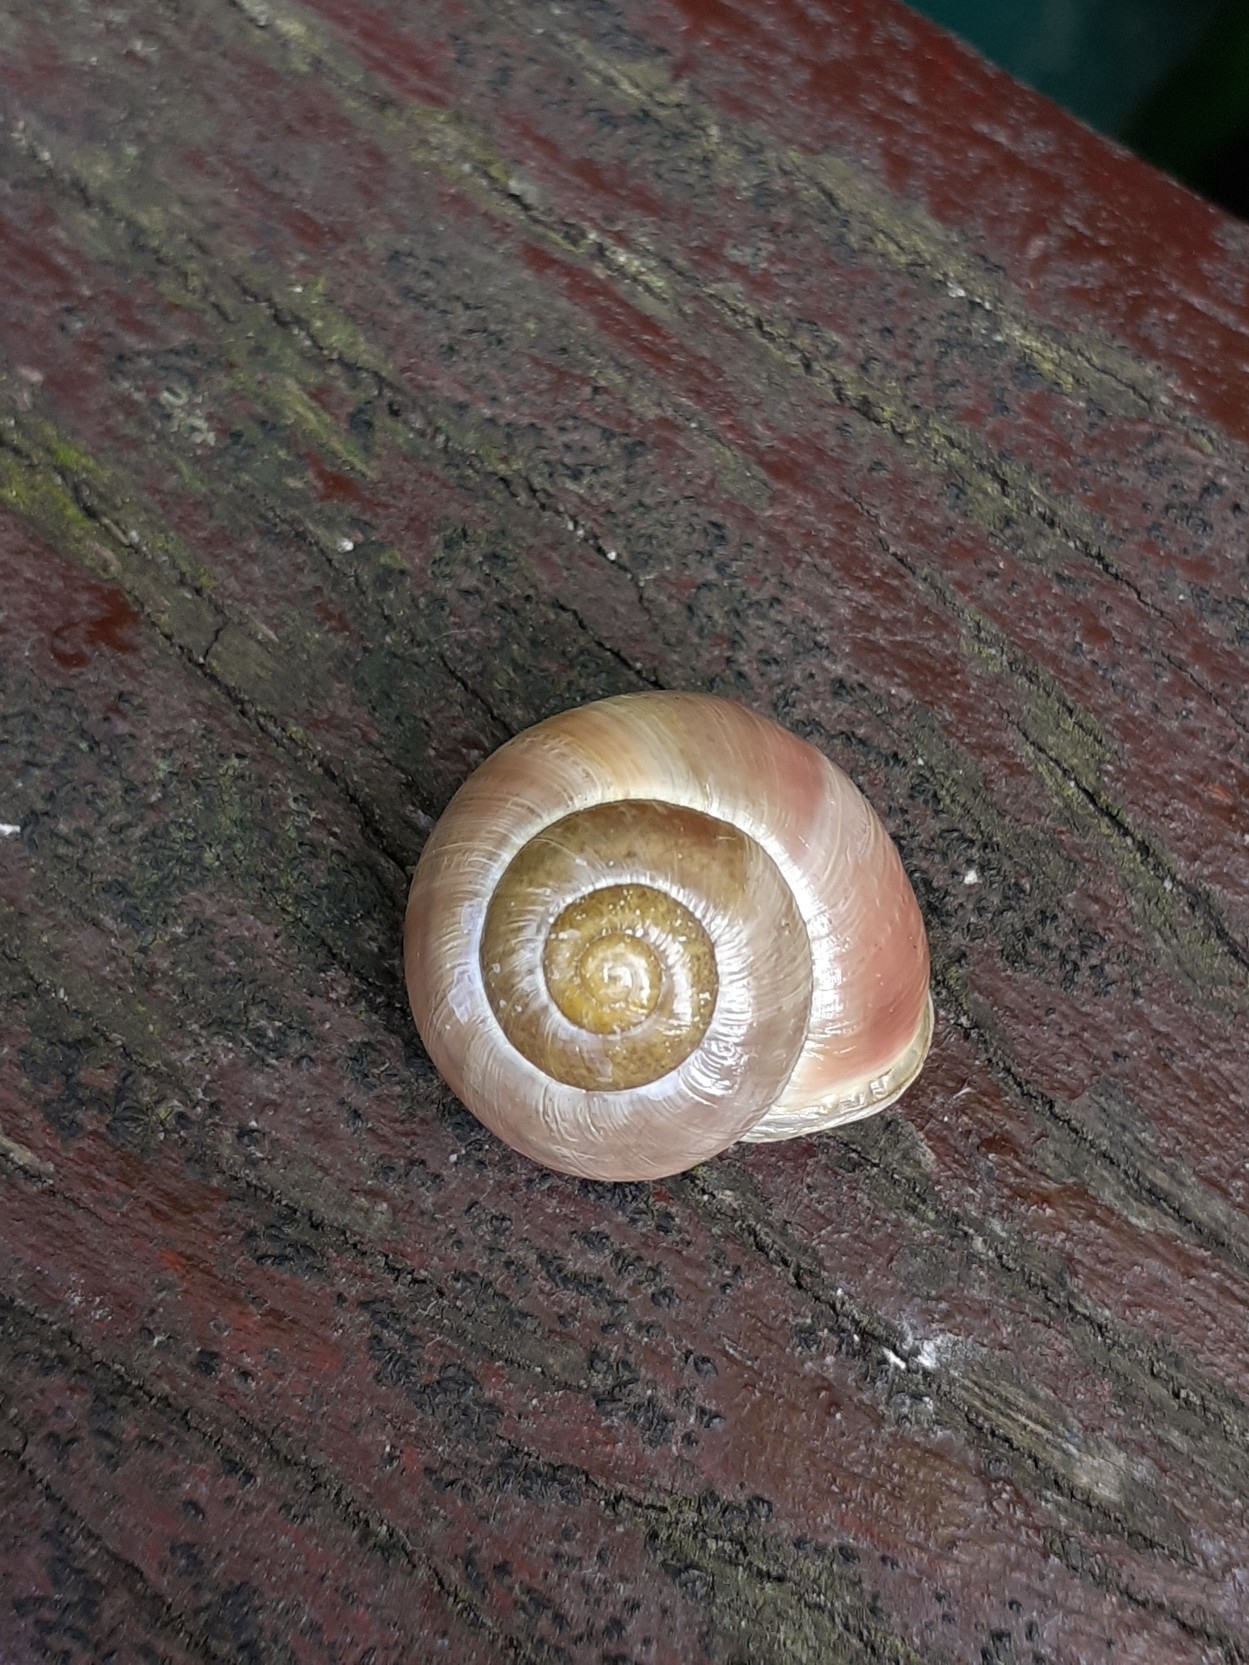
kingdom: Animalia
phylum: Mollusca
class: Gastropoda
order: Stylommatophora
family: Helicidae
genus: Cepaea
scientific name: Cepaea hortensis
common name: White-lip gardensnail
